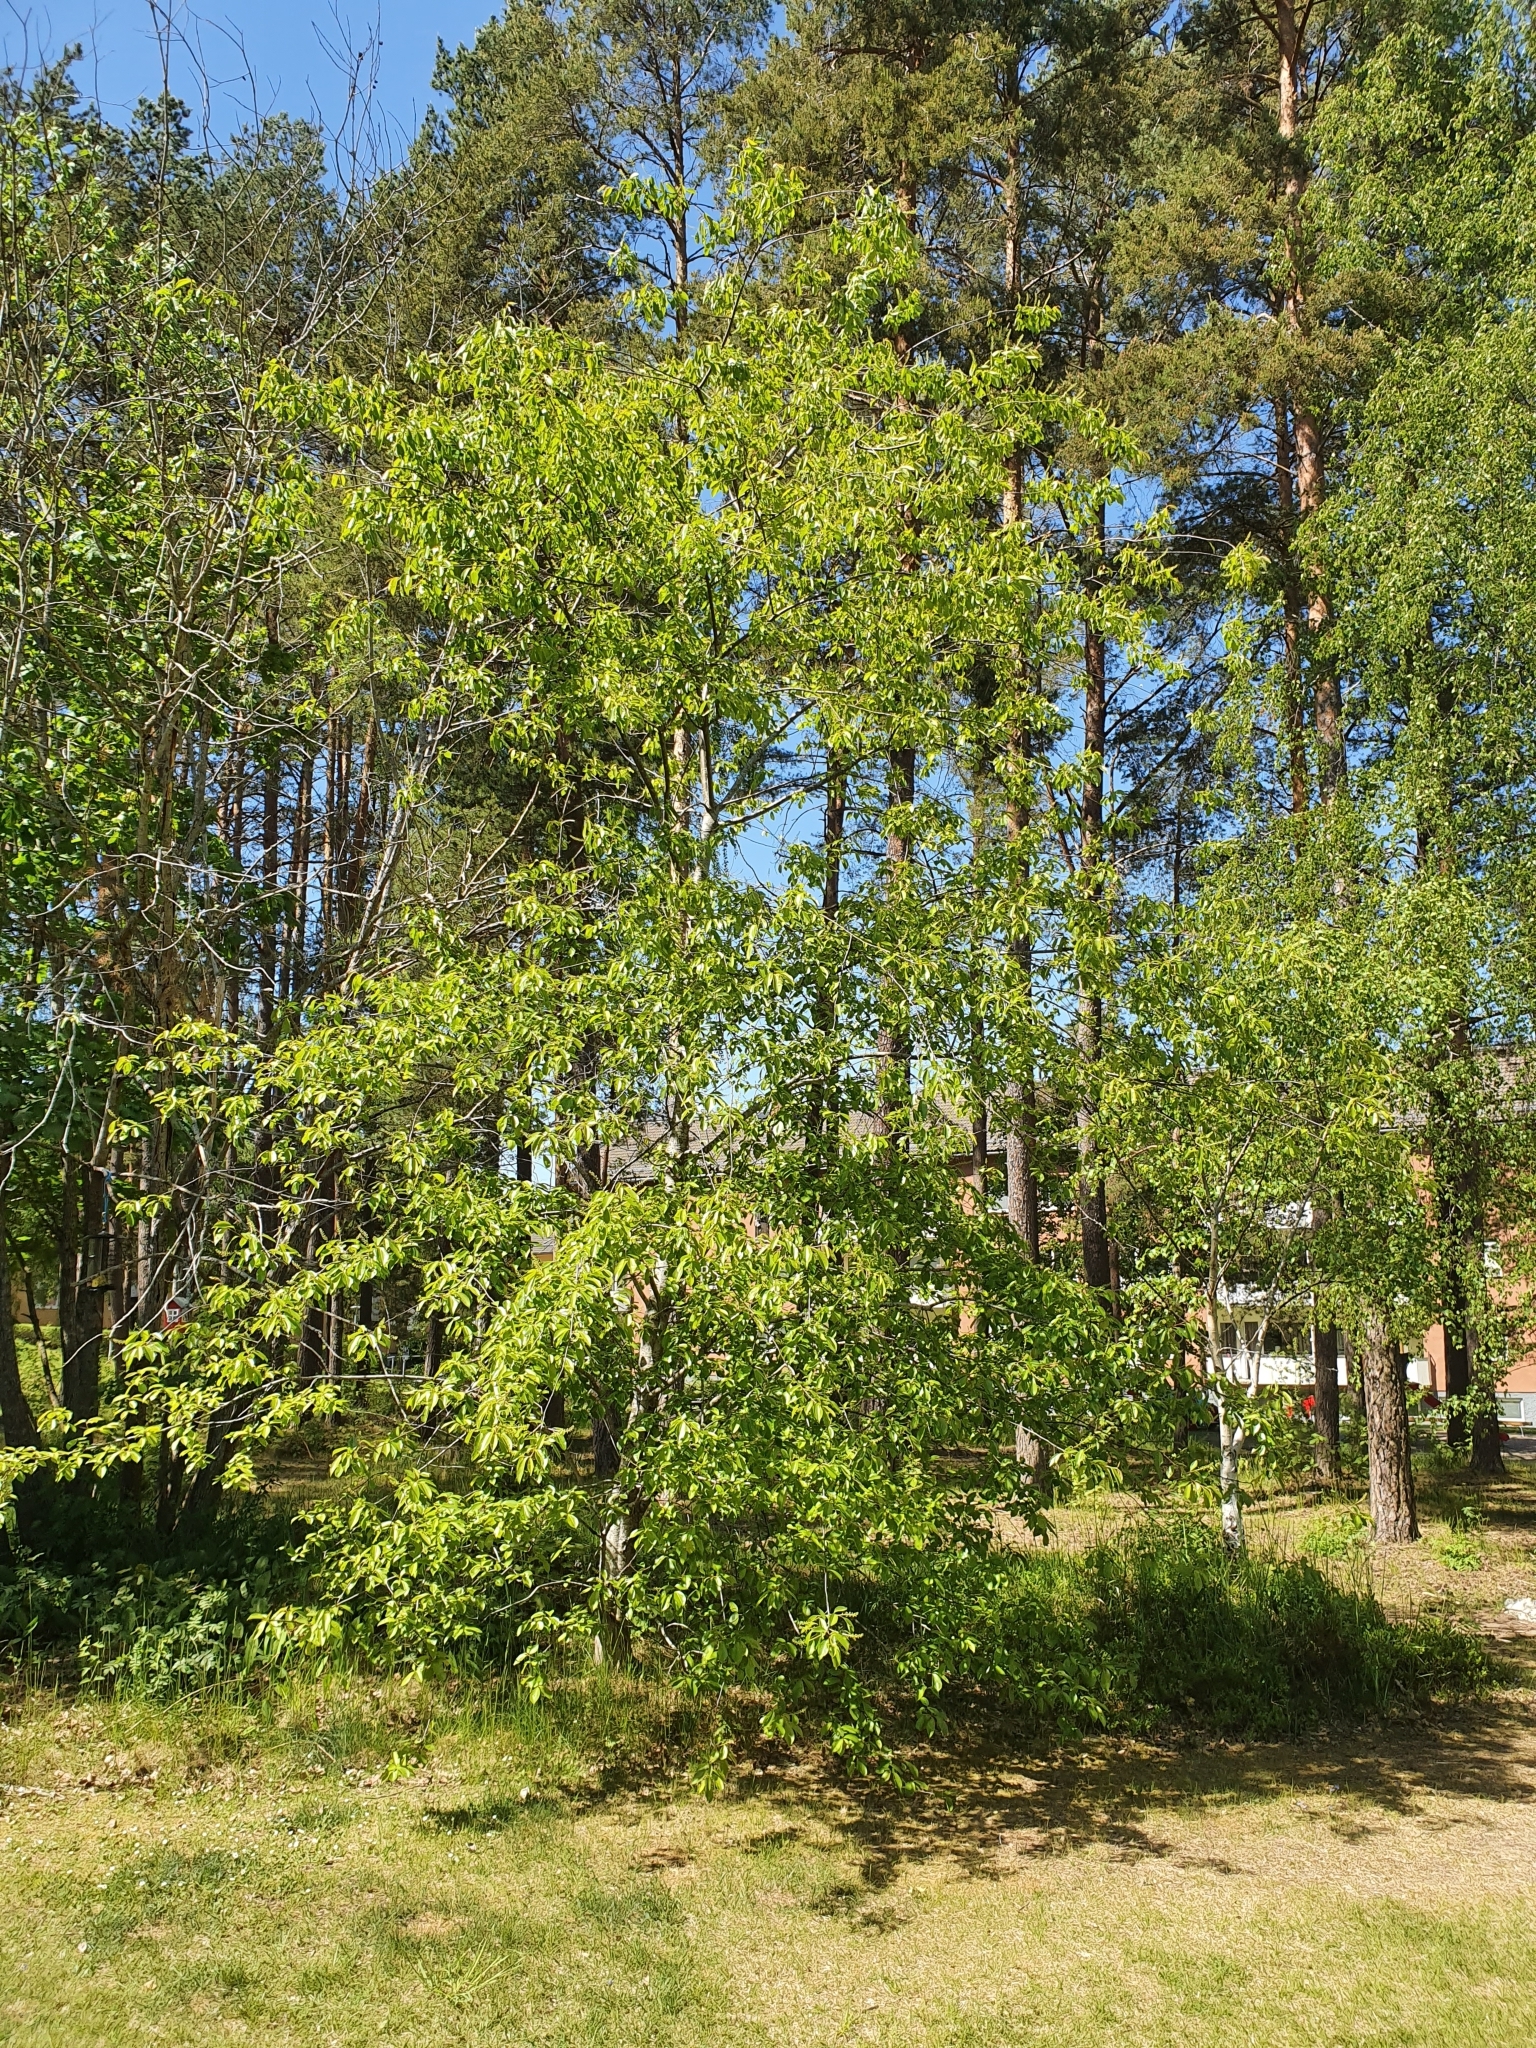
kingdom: Plantae
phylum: Tracheophyta
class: Magnoliopsida
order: Rosales
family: Rosaceae
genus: Prunus
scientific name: Prunus serotina
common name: Black cherry
